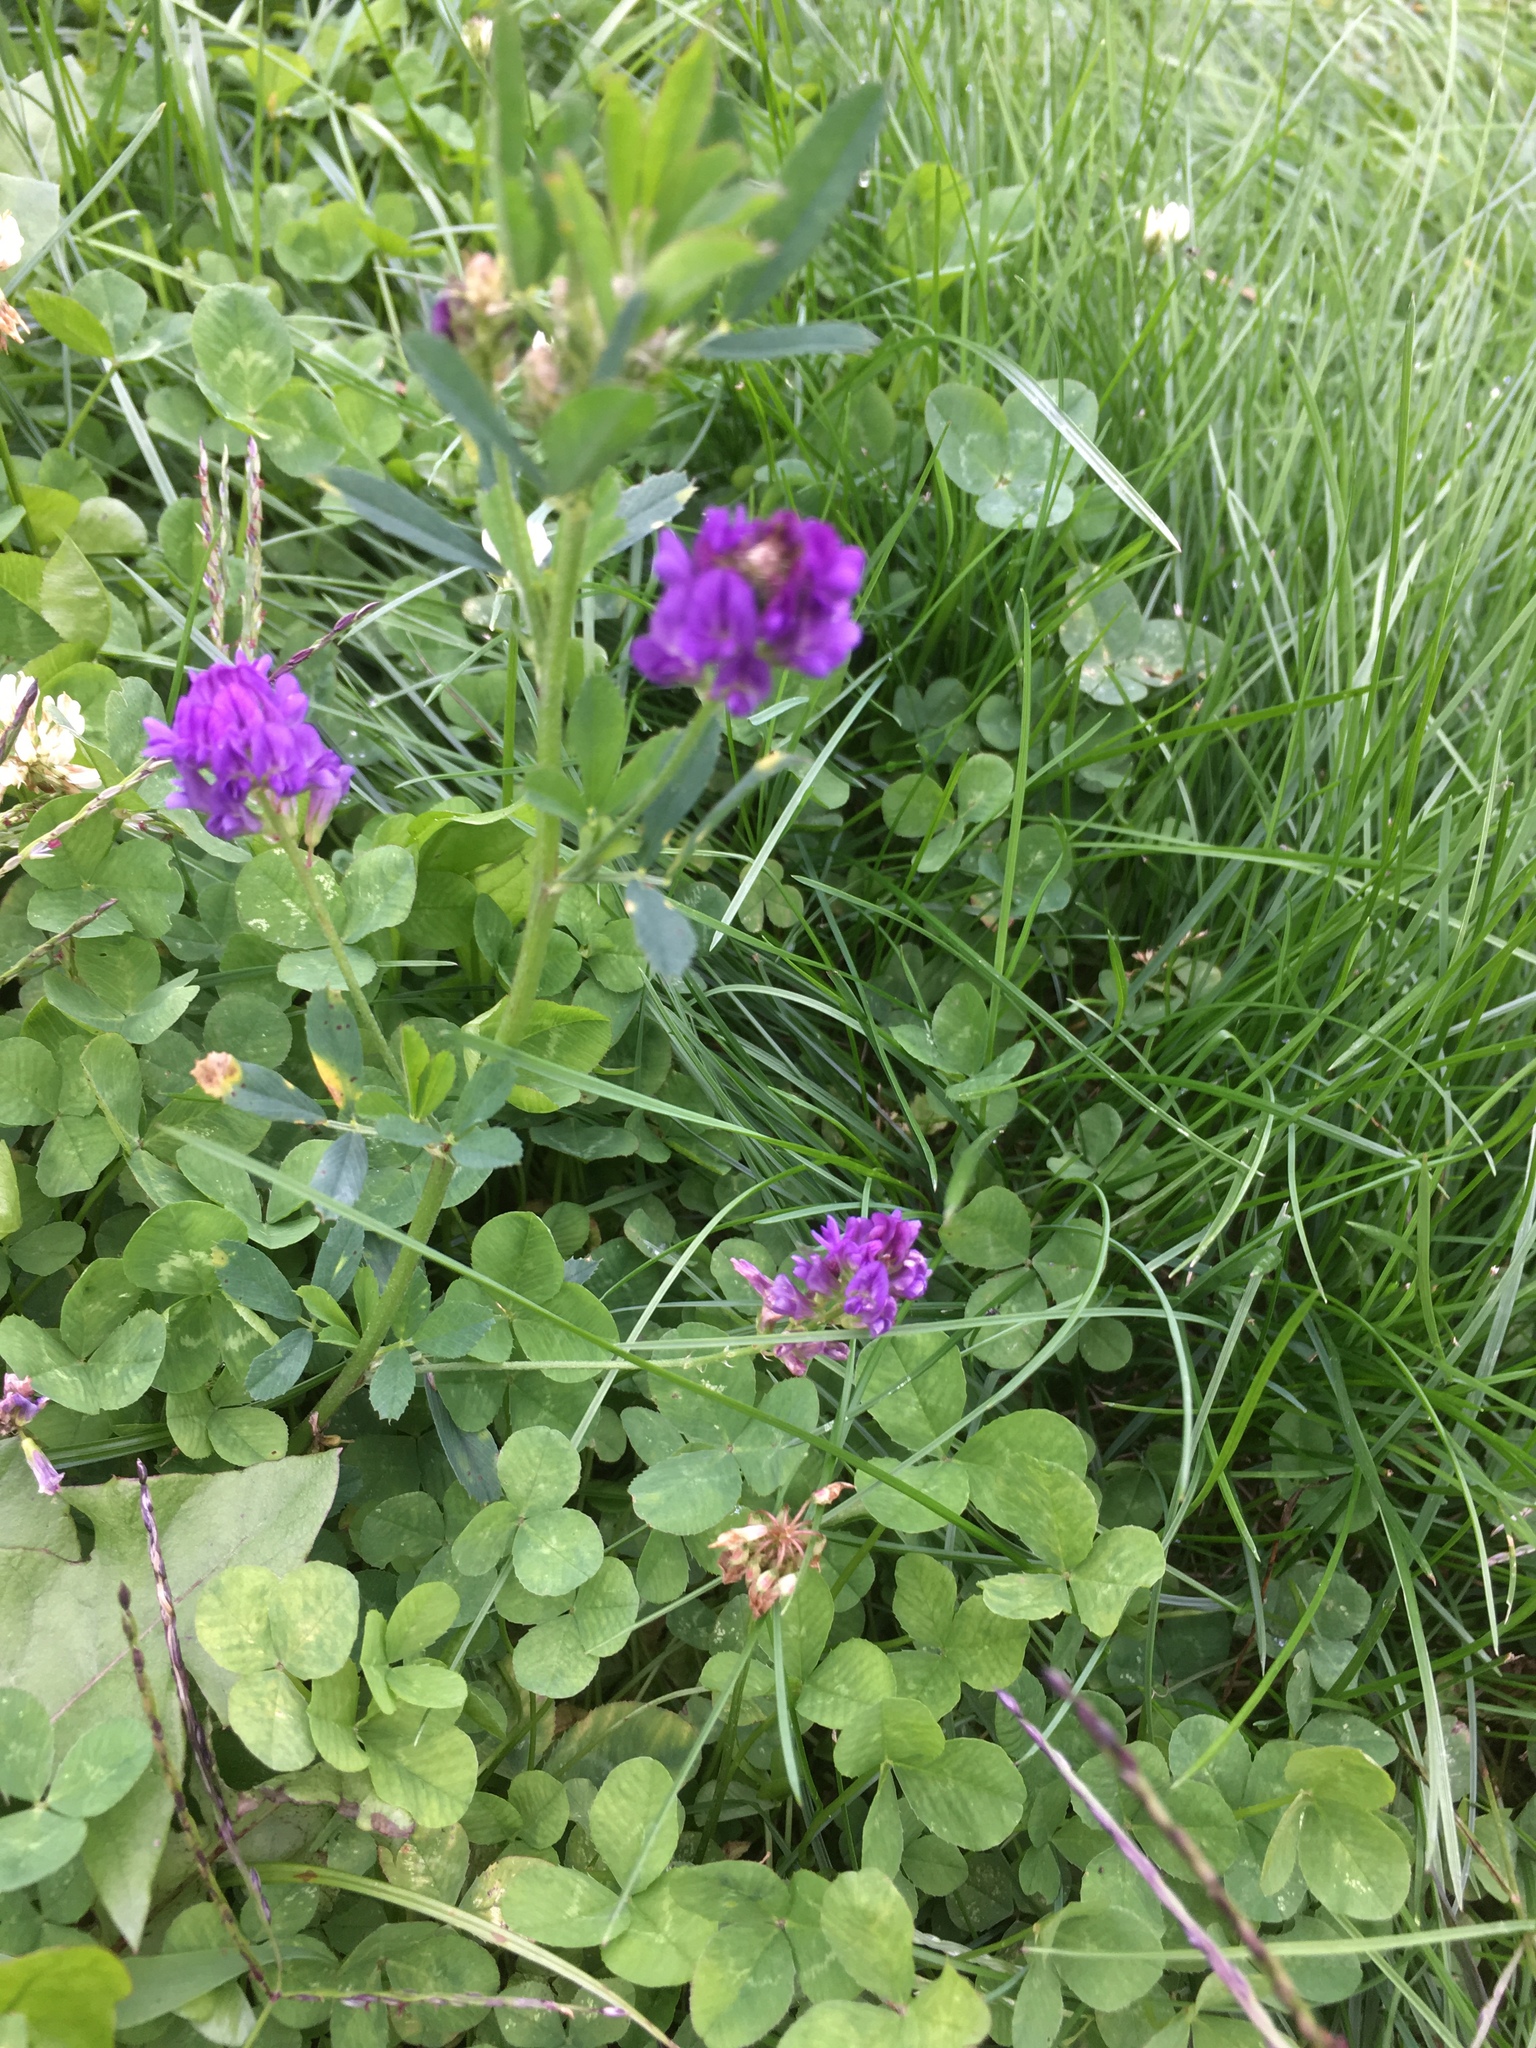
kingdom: Plantae
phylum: Tracheophyta
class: Magnoliopsida
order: Fabales
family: Fabaceae
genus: Medicago
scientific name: Medicago sativa
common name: Alfalfa
